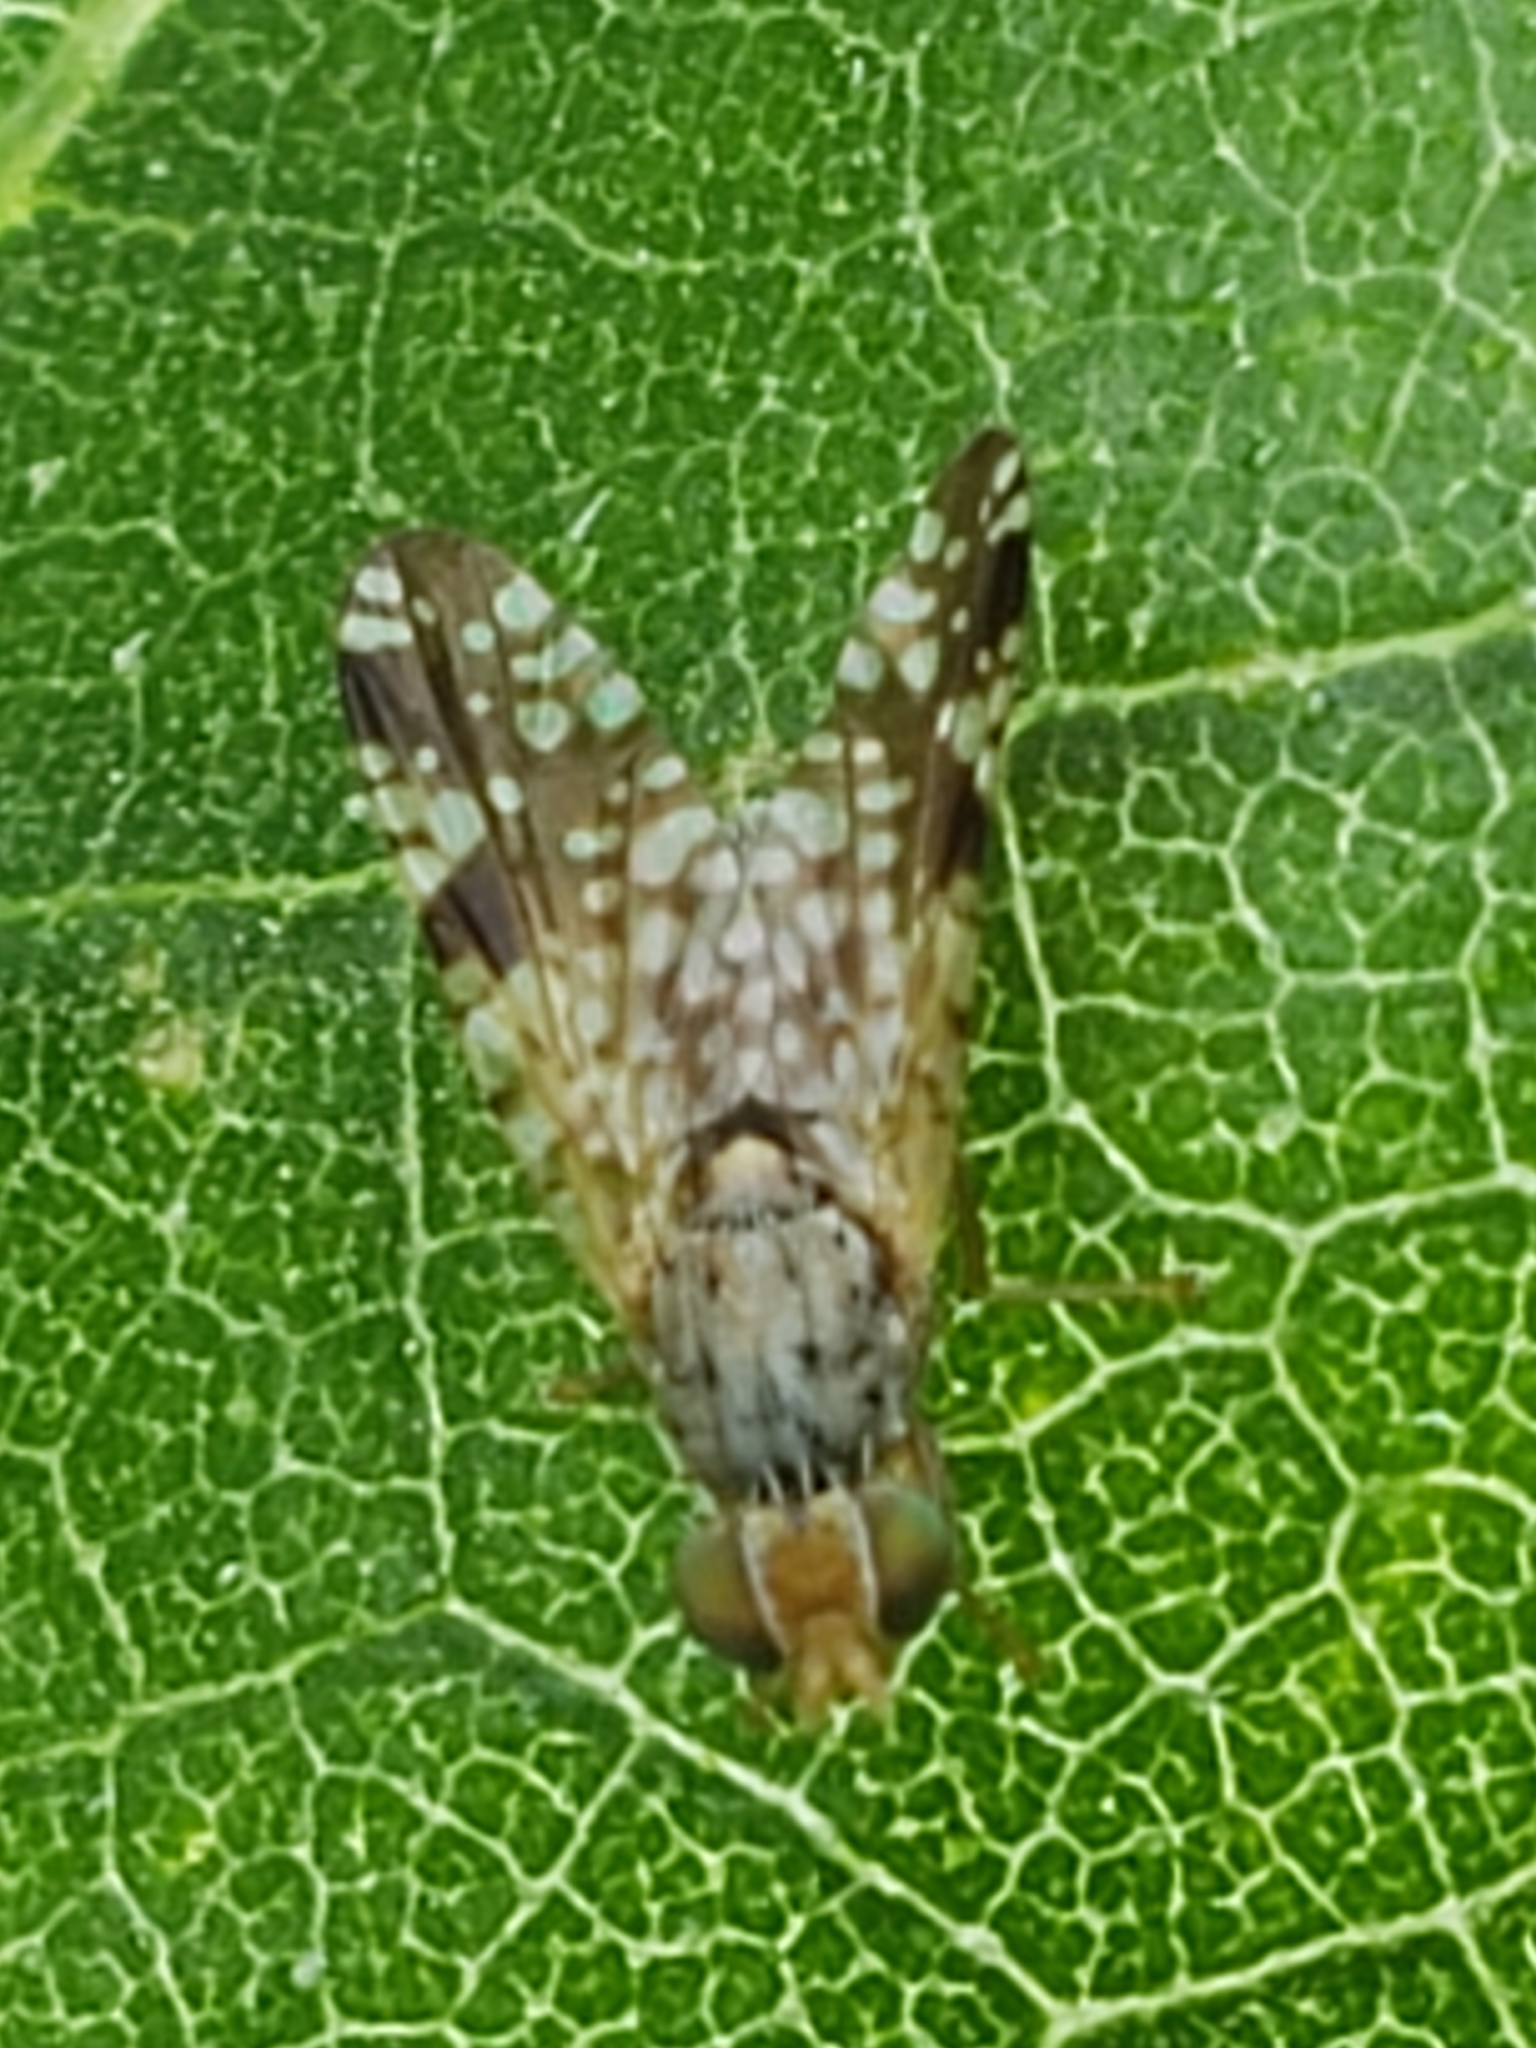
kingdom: Animalia
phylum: Arthropoda
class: Insecta
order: Diptera
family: Tephritidae
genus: Neotephritis
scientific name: Neotephritis finalis
